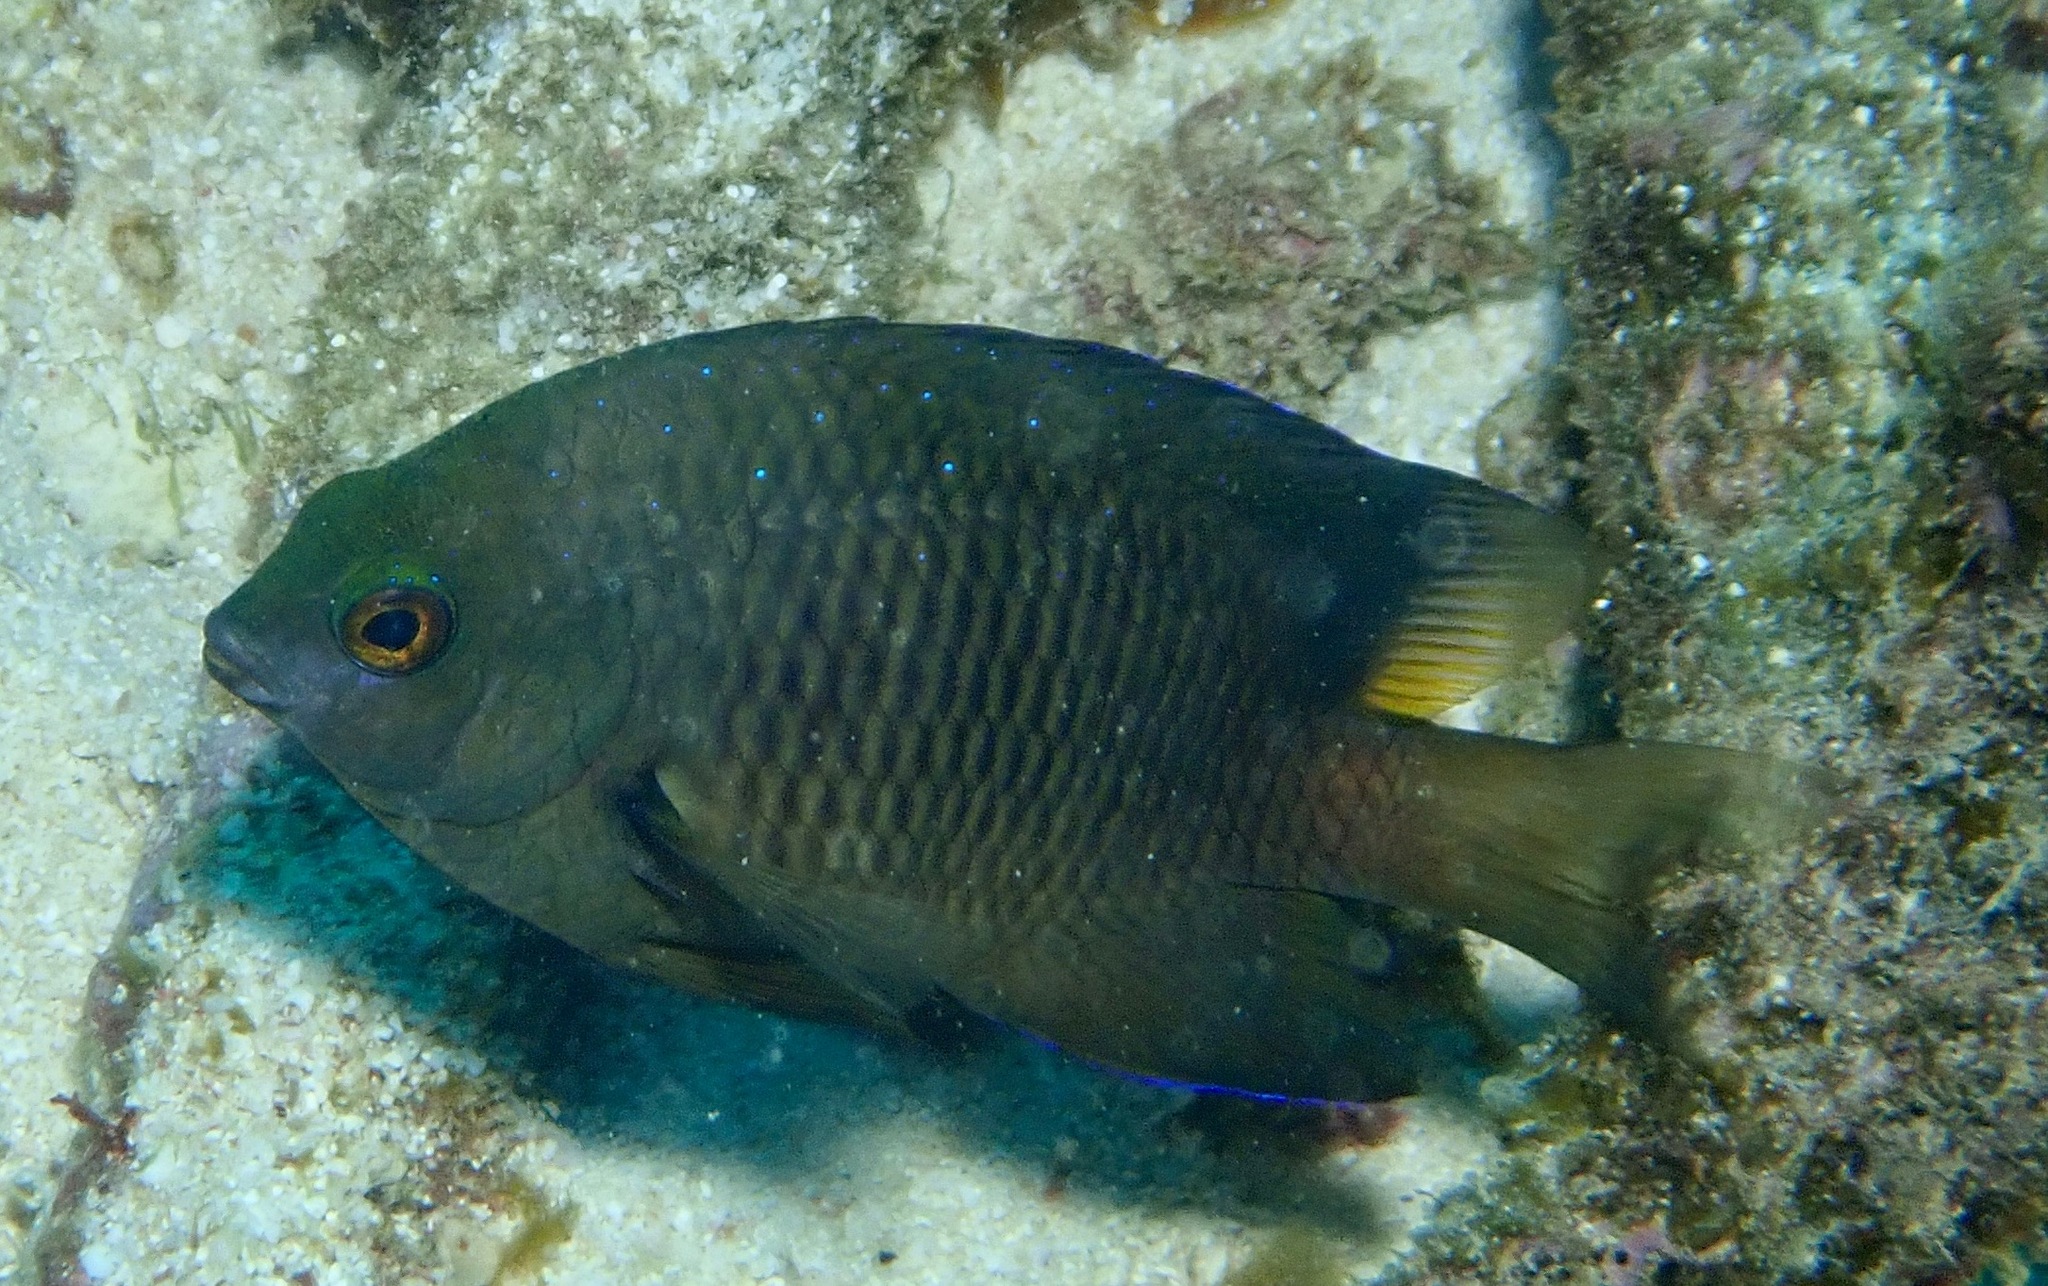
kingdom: Animalia
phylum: Chordata
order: Perciformes
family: Pomacentridae
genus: Plectroglyphidodon
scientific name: Plectroglyphidodon lacrymatus
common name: Jewel damsel
